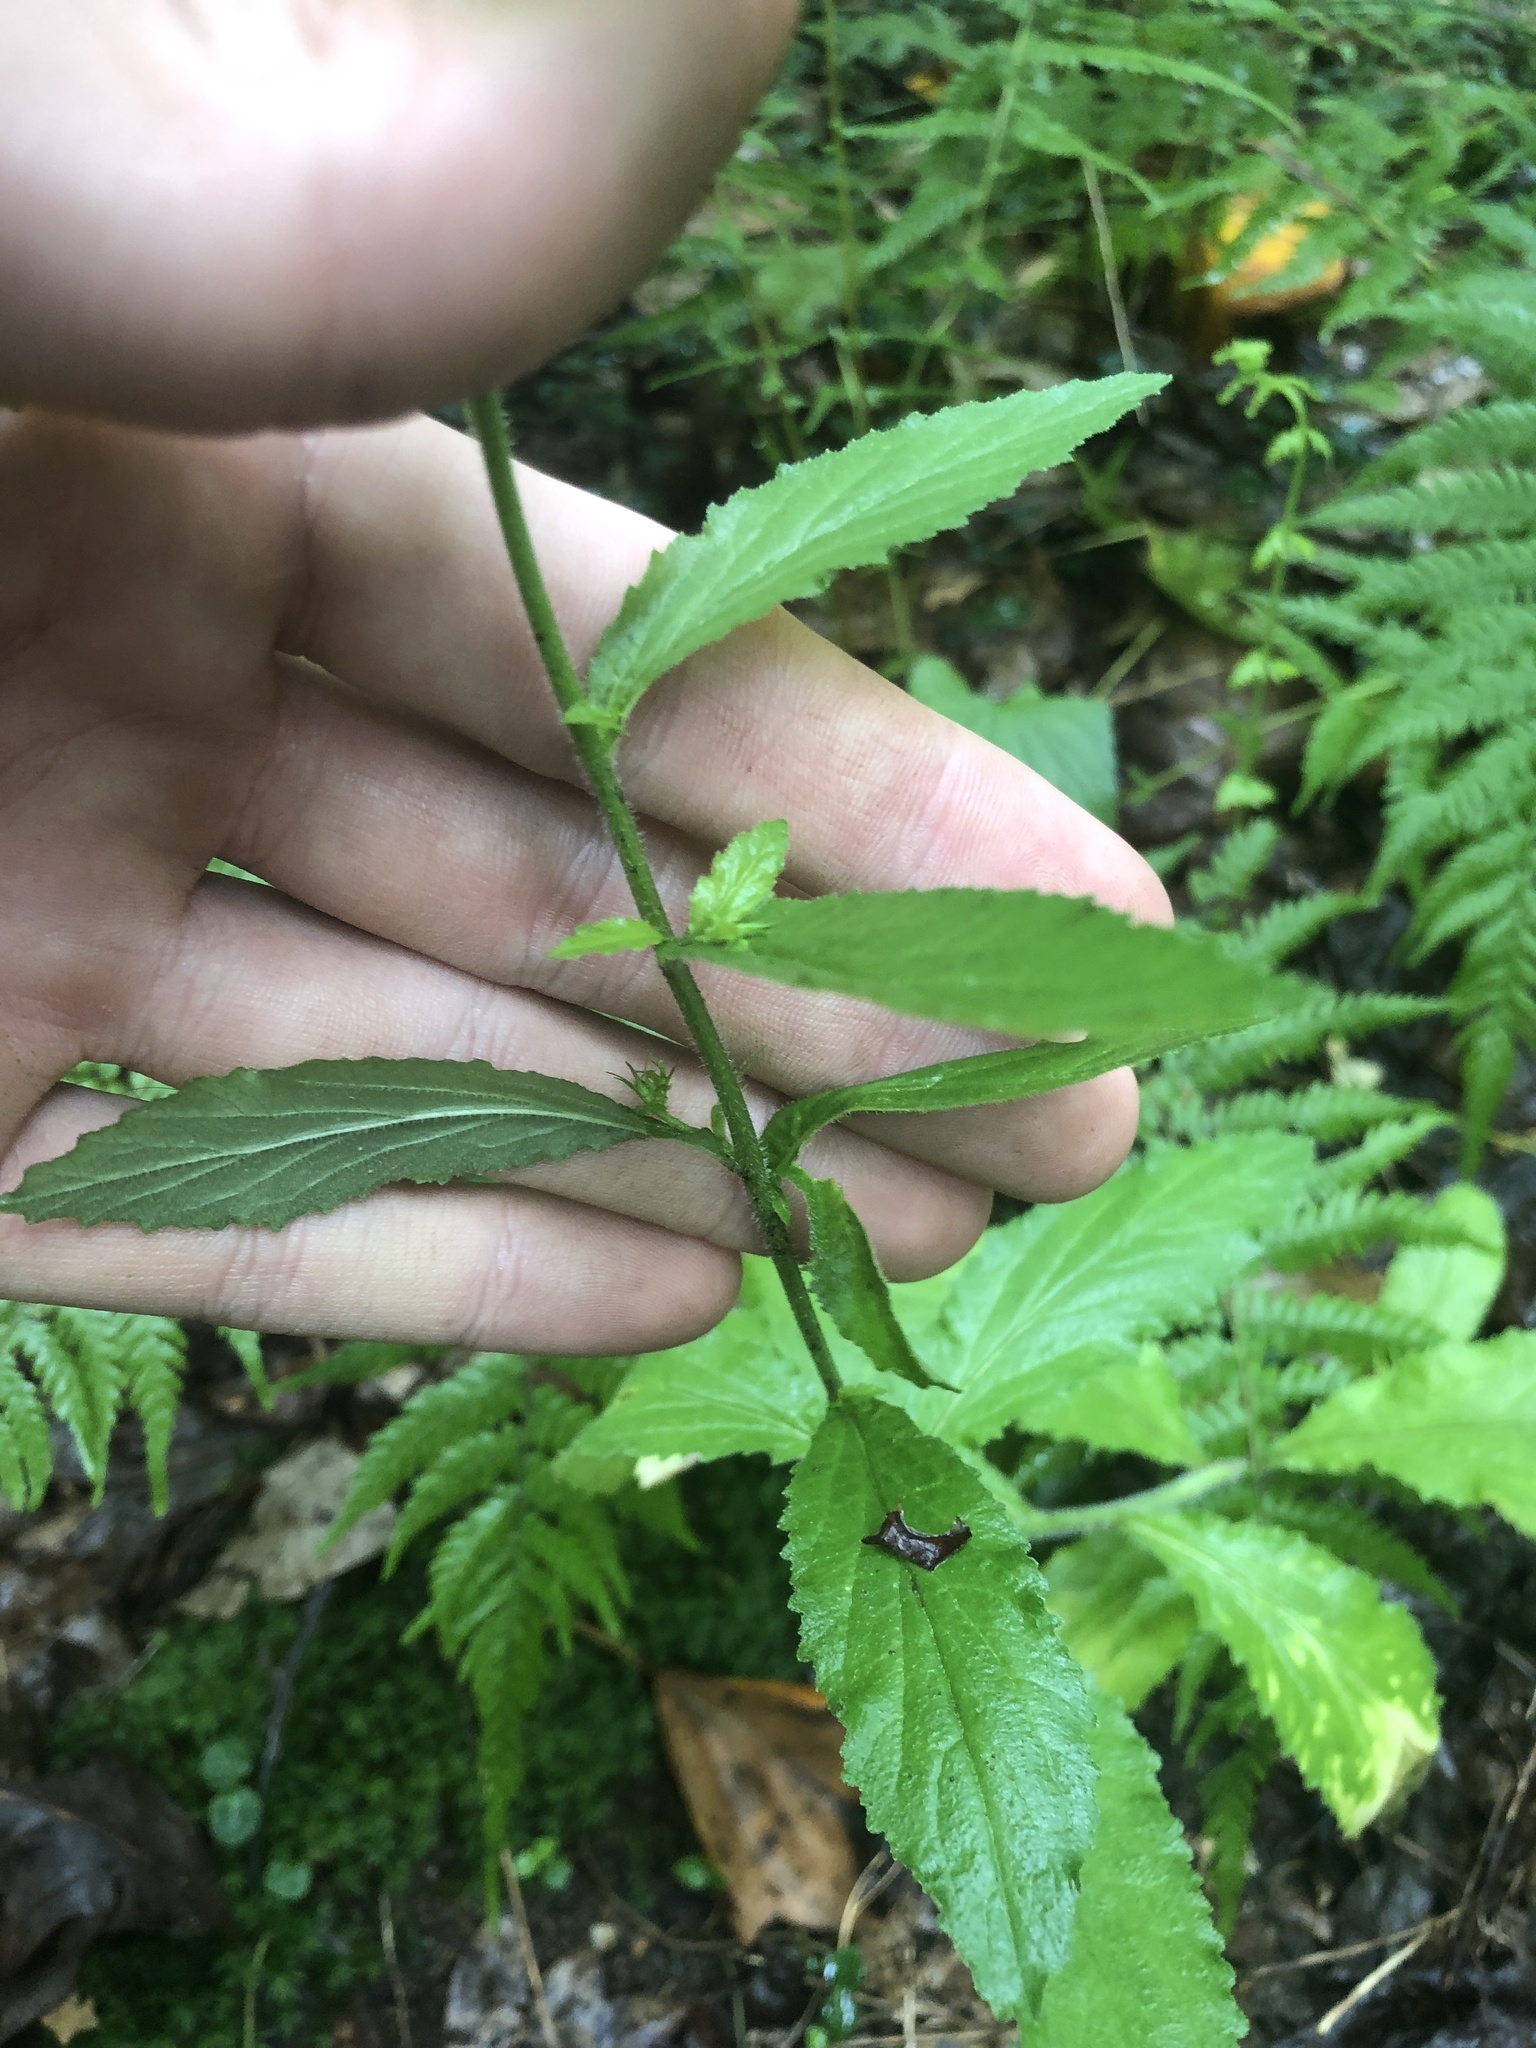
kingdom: Plantae
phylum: Tracheophyta
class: Magnoliopsida
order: Asterales
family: Campanulaceae
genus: Lobelia
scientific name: Lobelia inflata
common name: Indian tobacco
